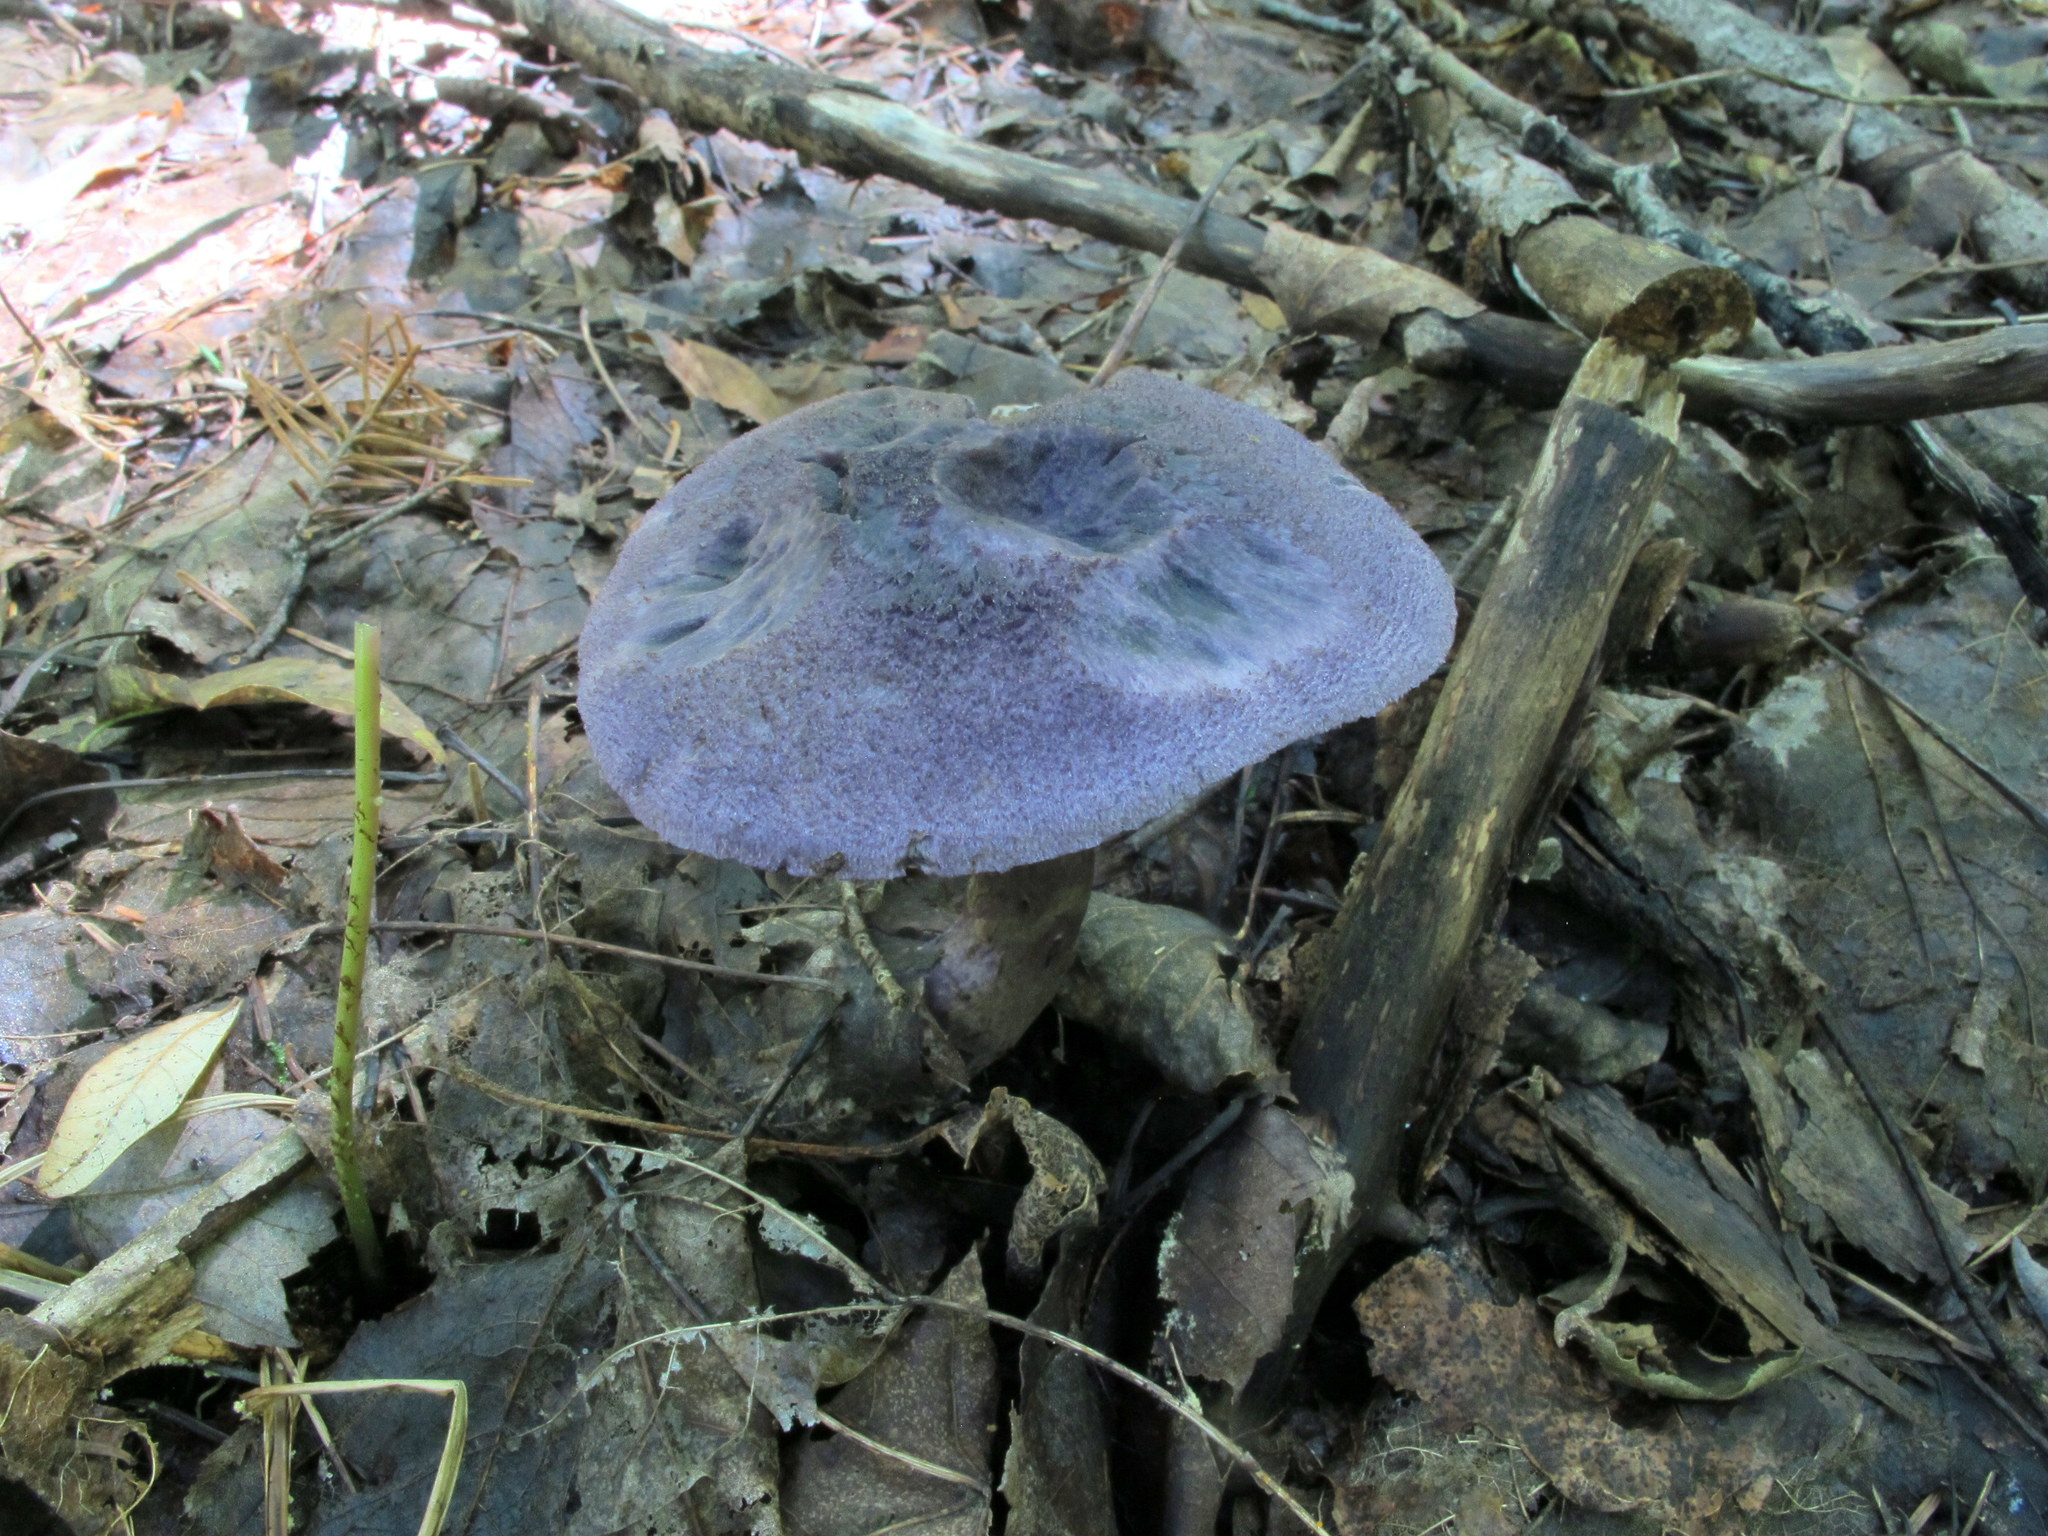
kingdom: Fungi
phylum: Basidiomycota
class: Agaricomycetes
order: Agaricales
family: Cortinariaceae
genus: Cortinarius
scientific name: Cortinarius violaceus
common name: Violet webcap
